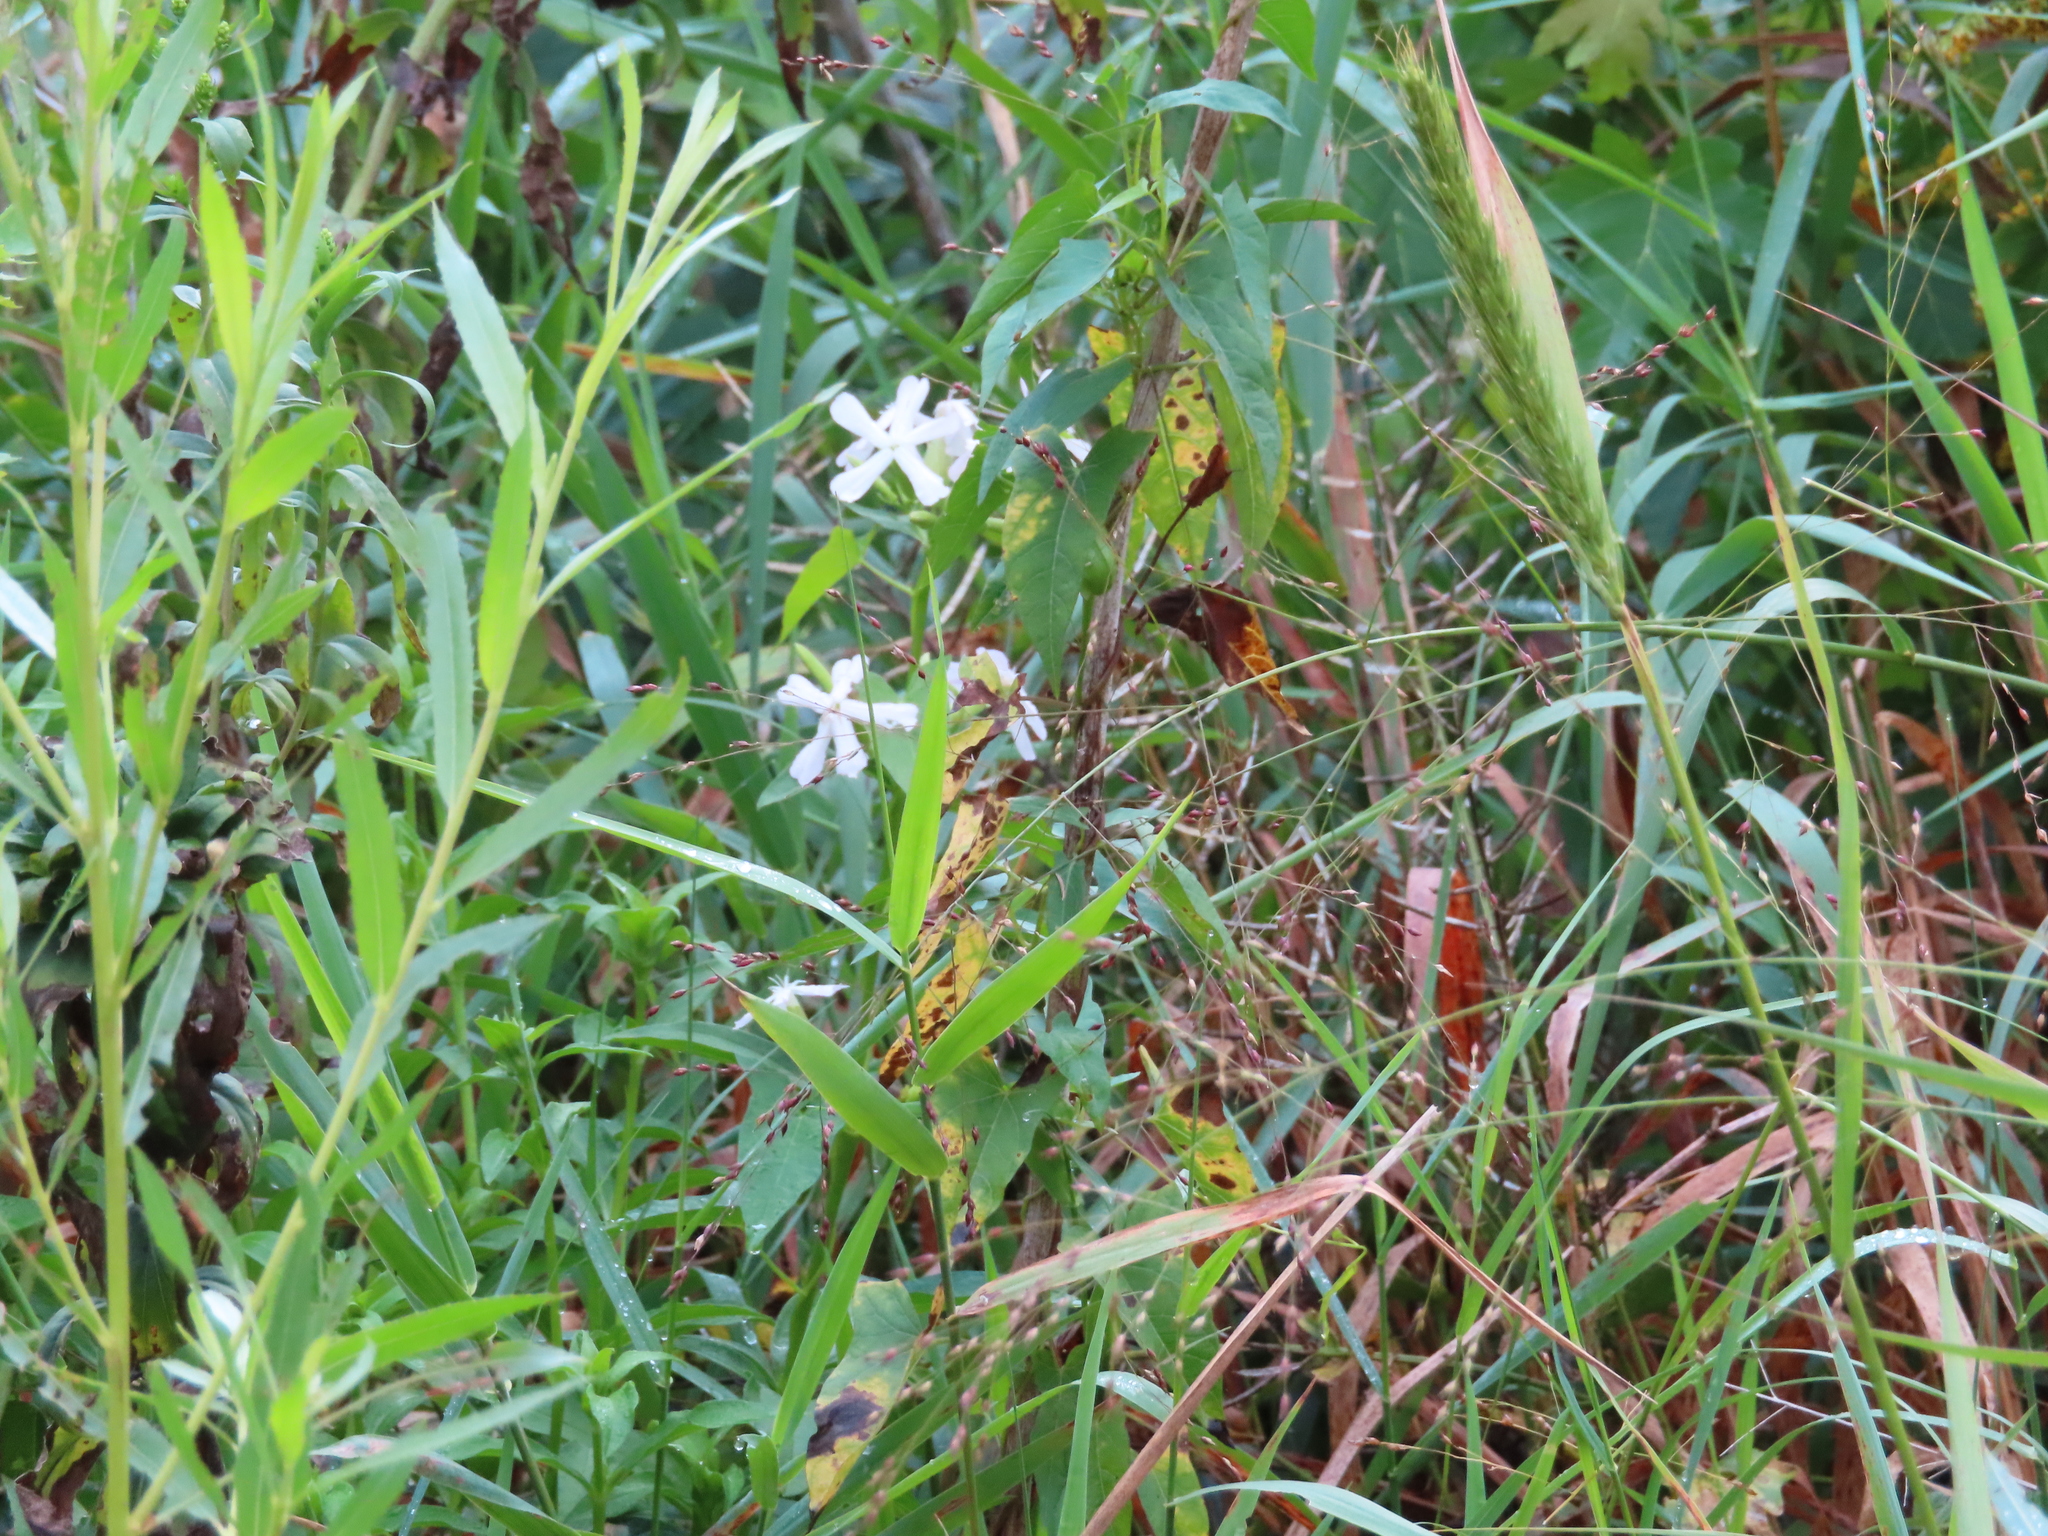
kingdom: Plantae
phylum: Tracheophyta
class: Magnoliopsida
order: Caryophyllales
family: Caryophyllaceae
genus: Saponaria
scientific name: Saponaria officinalis
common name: Soapwort
